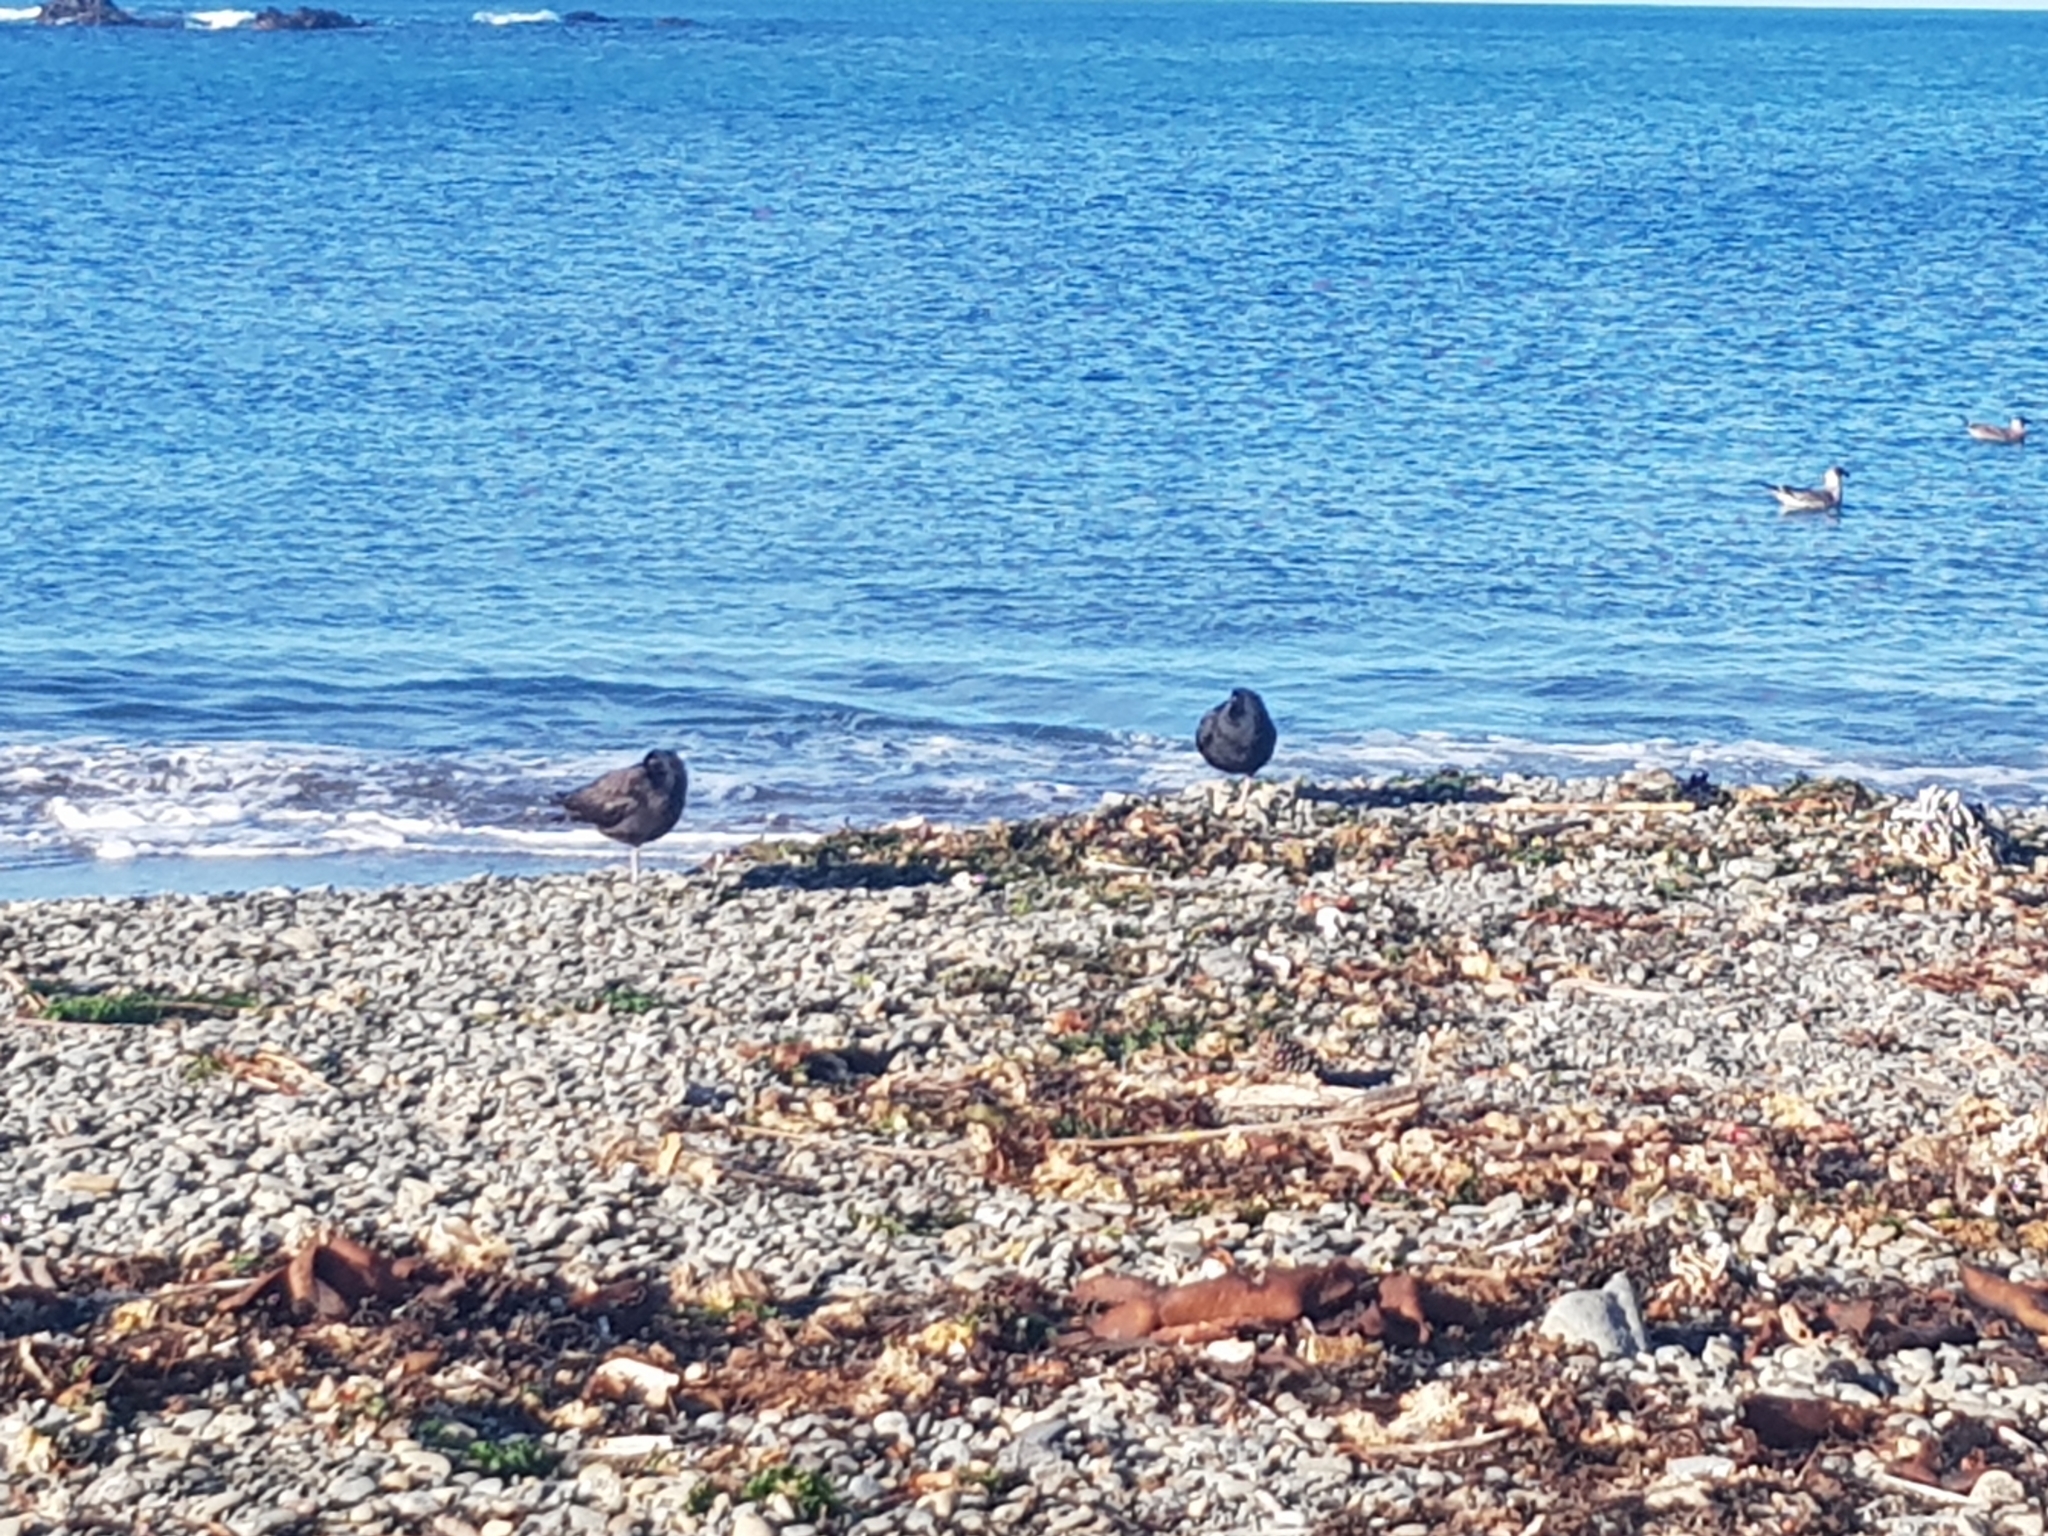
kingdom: Animalia
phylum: Chordata
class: Aves
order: Charadriiformes
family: Haematopodidae
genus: Haematopus
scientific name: Haematopus unicolor
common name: Variable oystercatcher
